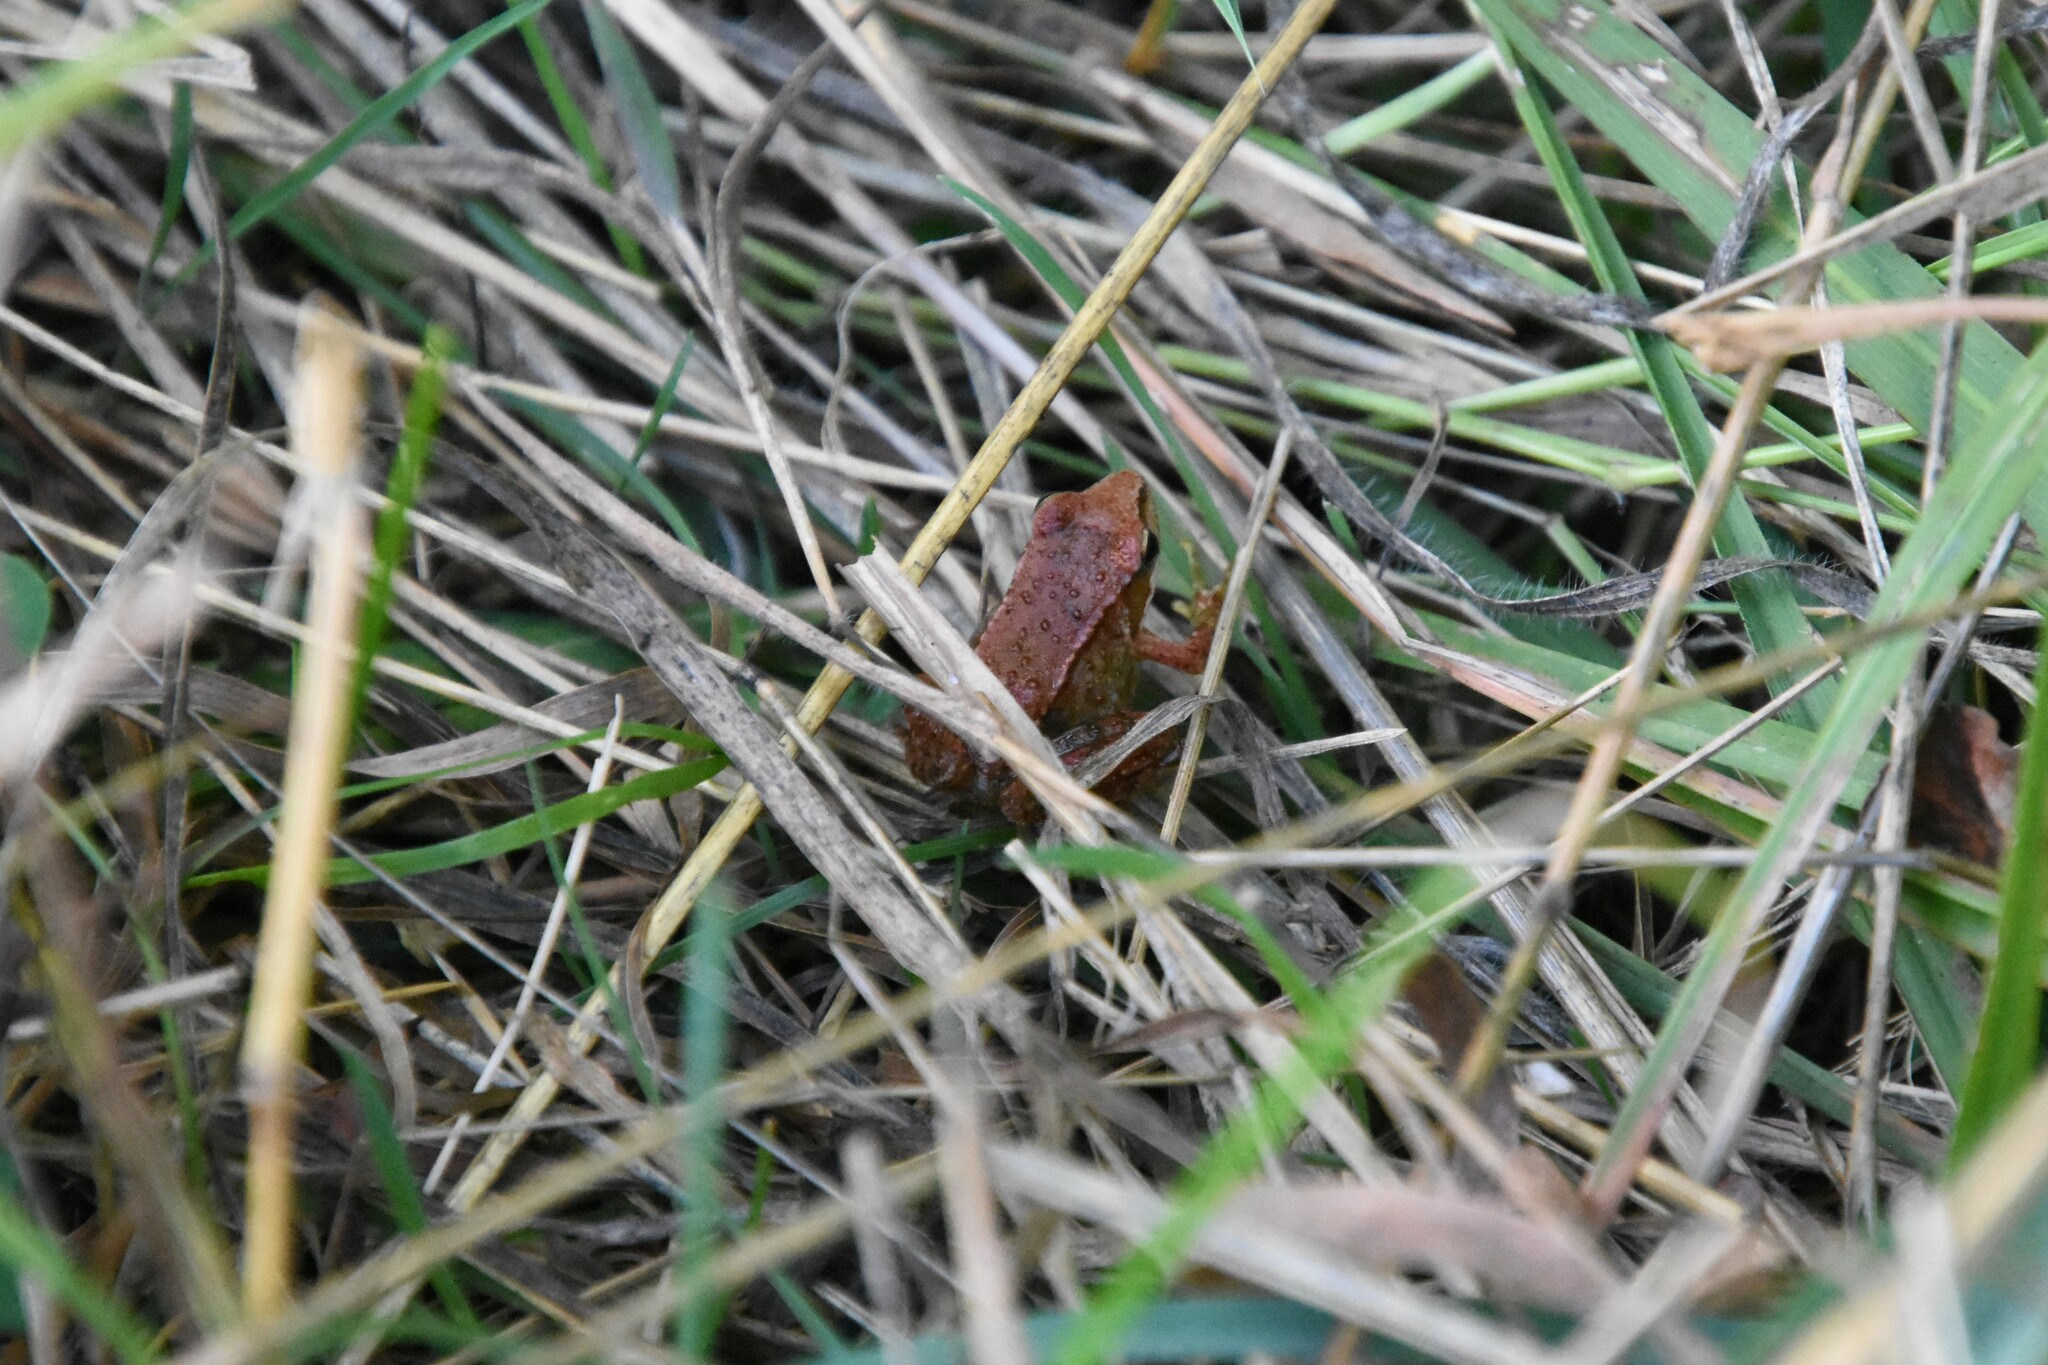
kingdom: Animalia
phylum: Chordata
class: Amphibia
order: Anura
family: Ranidae
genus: Rana
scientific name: Rana iberica
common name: Iberian frog
